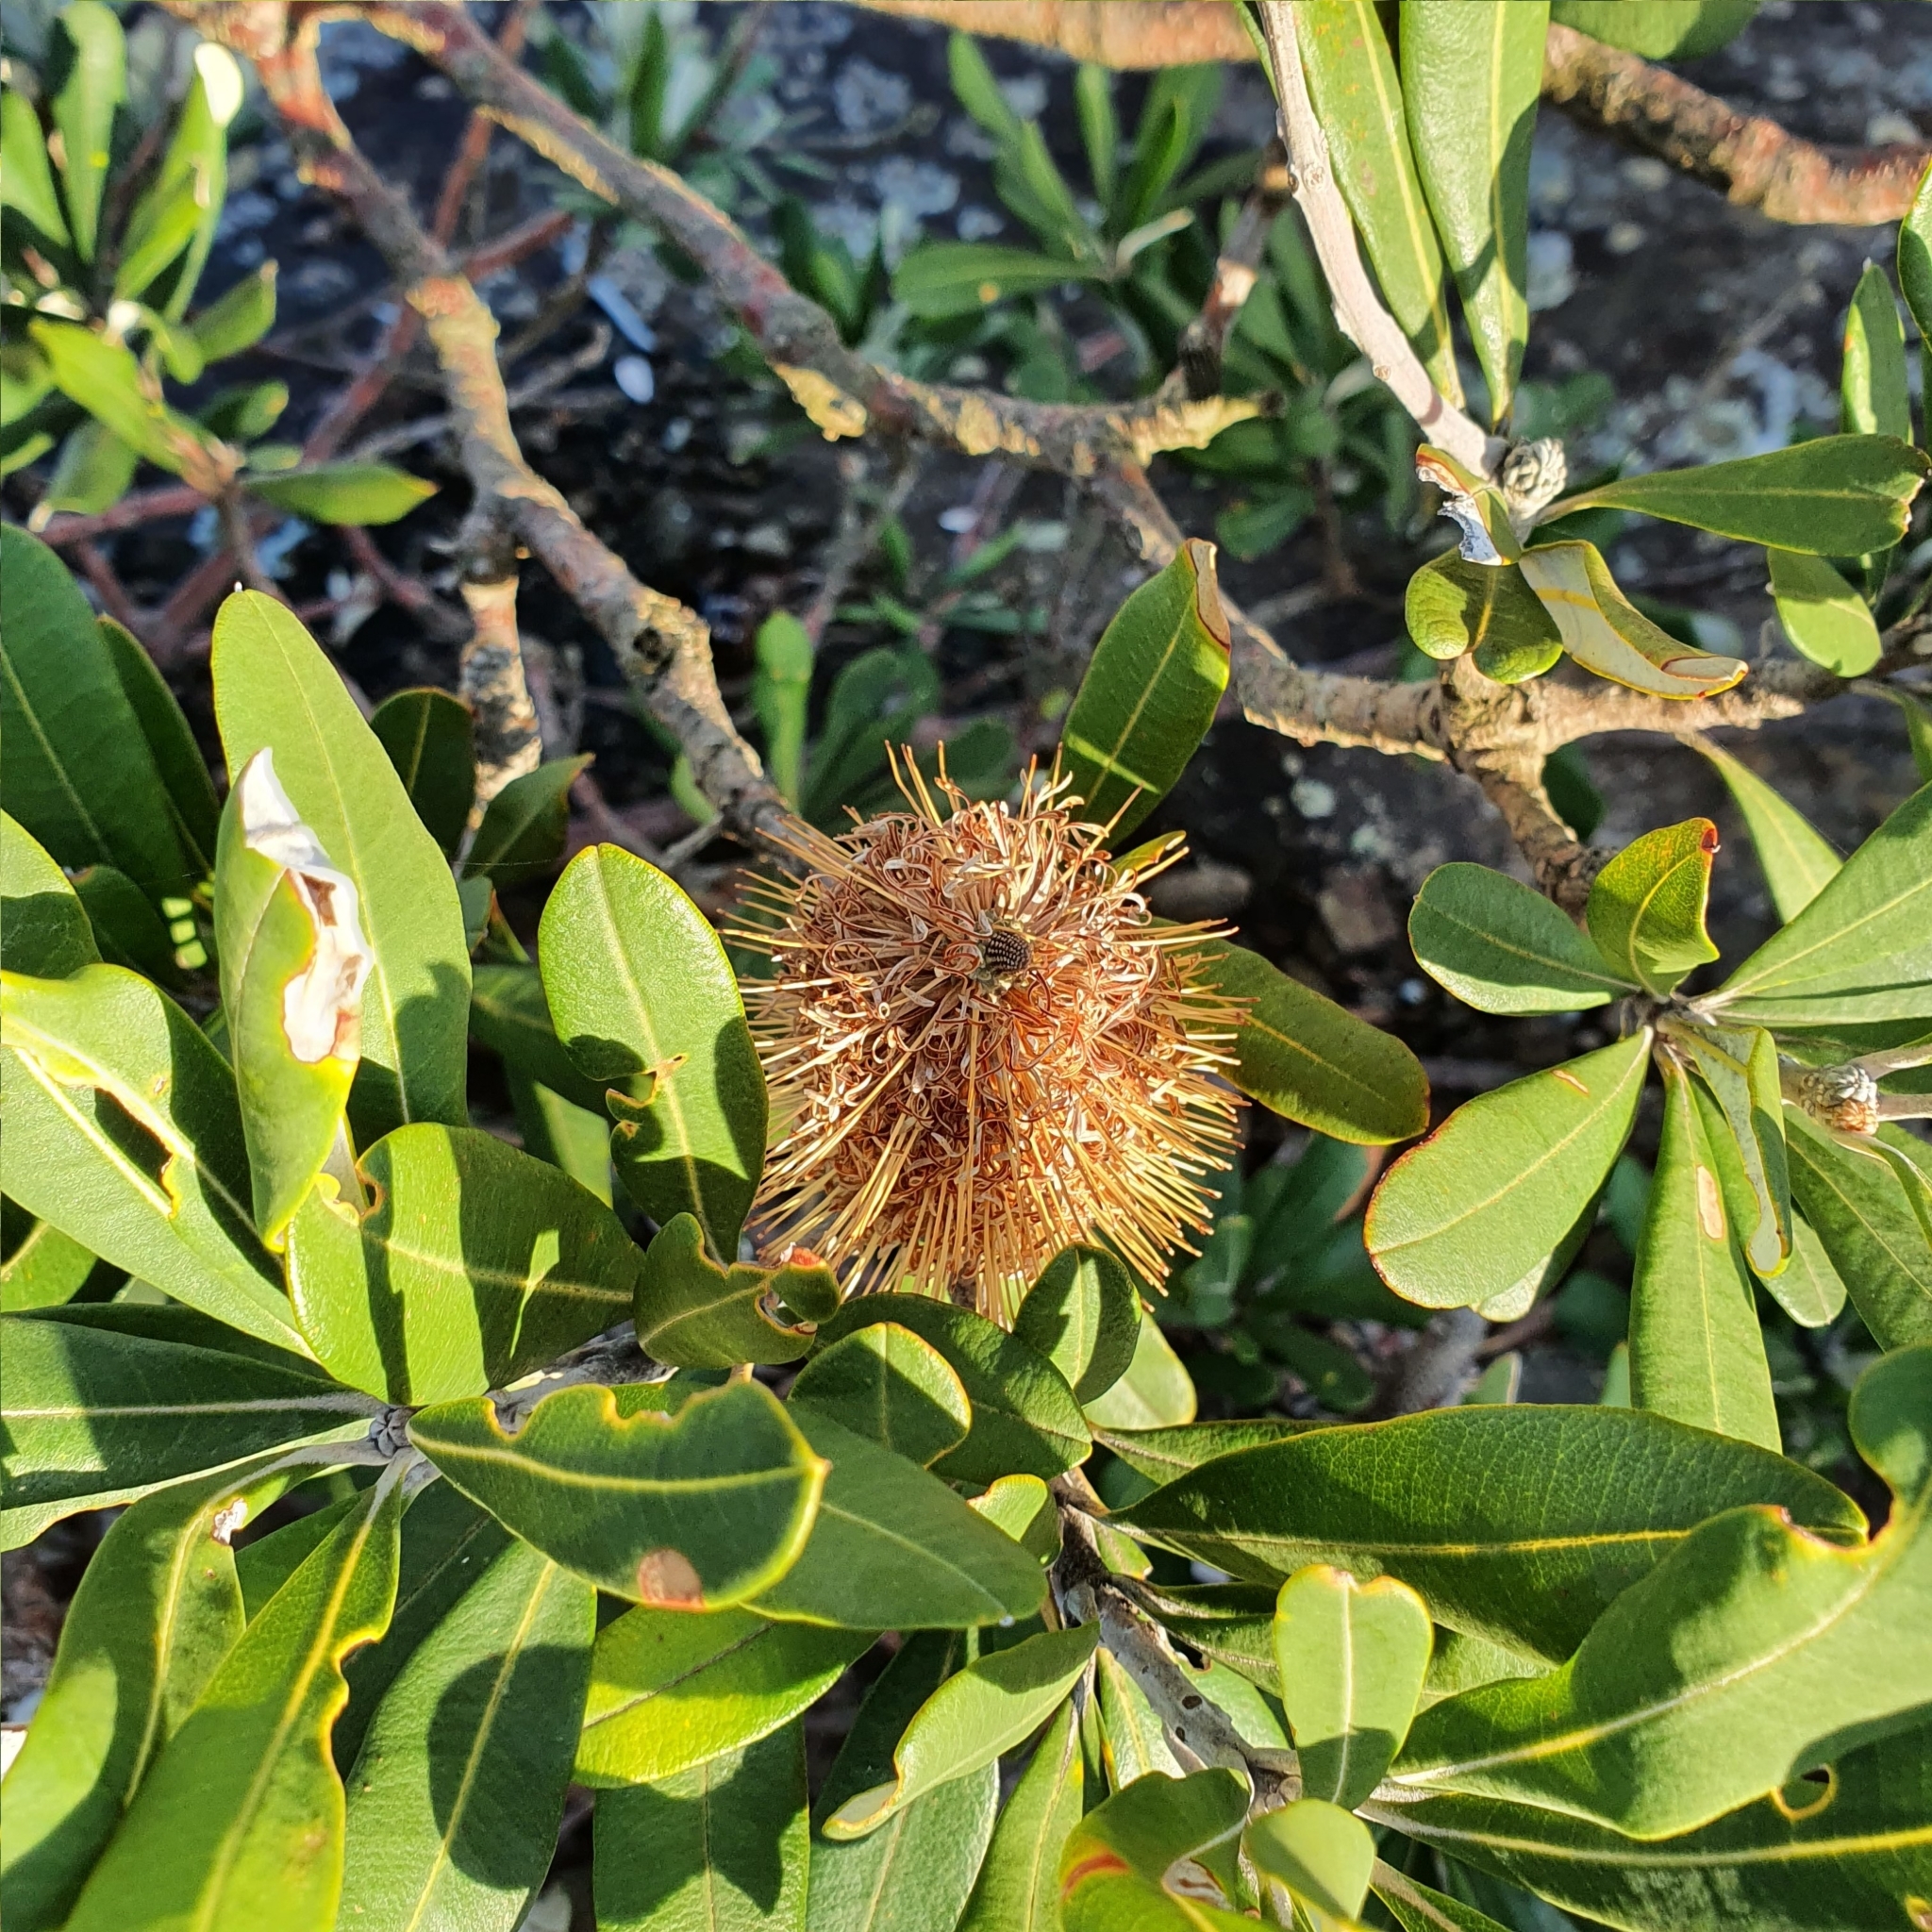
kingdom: Plantae
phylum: Tracheophyta
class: Magnoliopsida
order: Proteales
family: Proteaceae
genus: Banksia
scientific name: Banksia integrifolia
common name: White-honeysuckle
